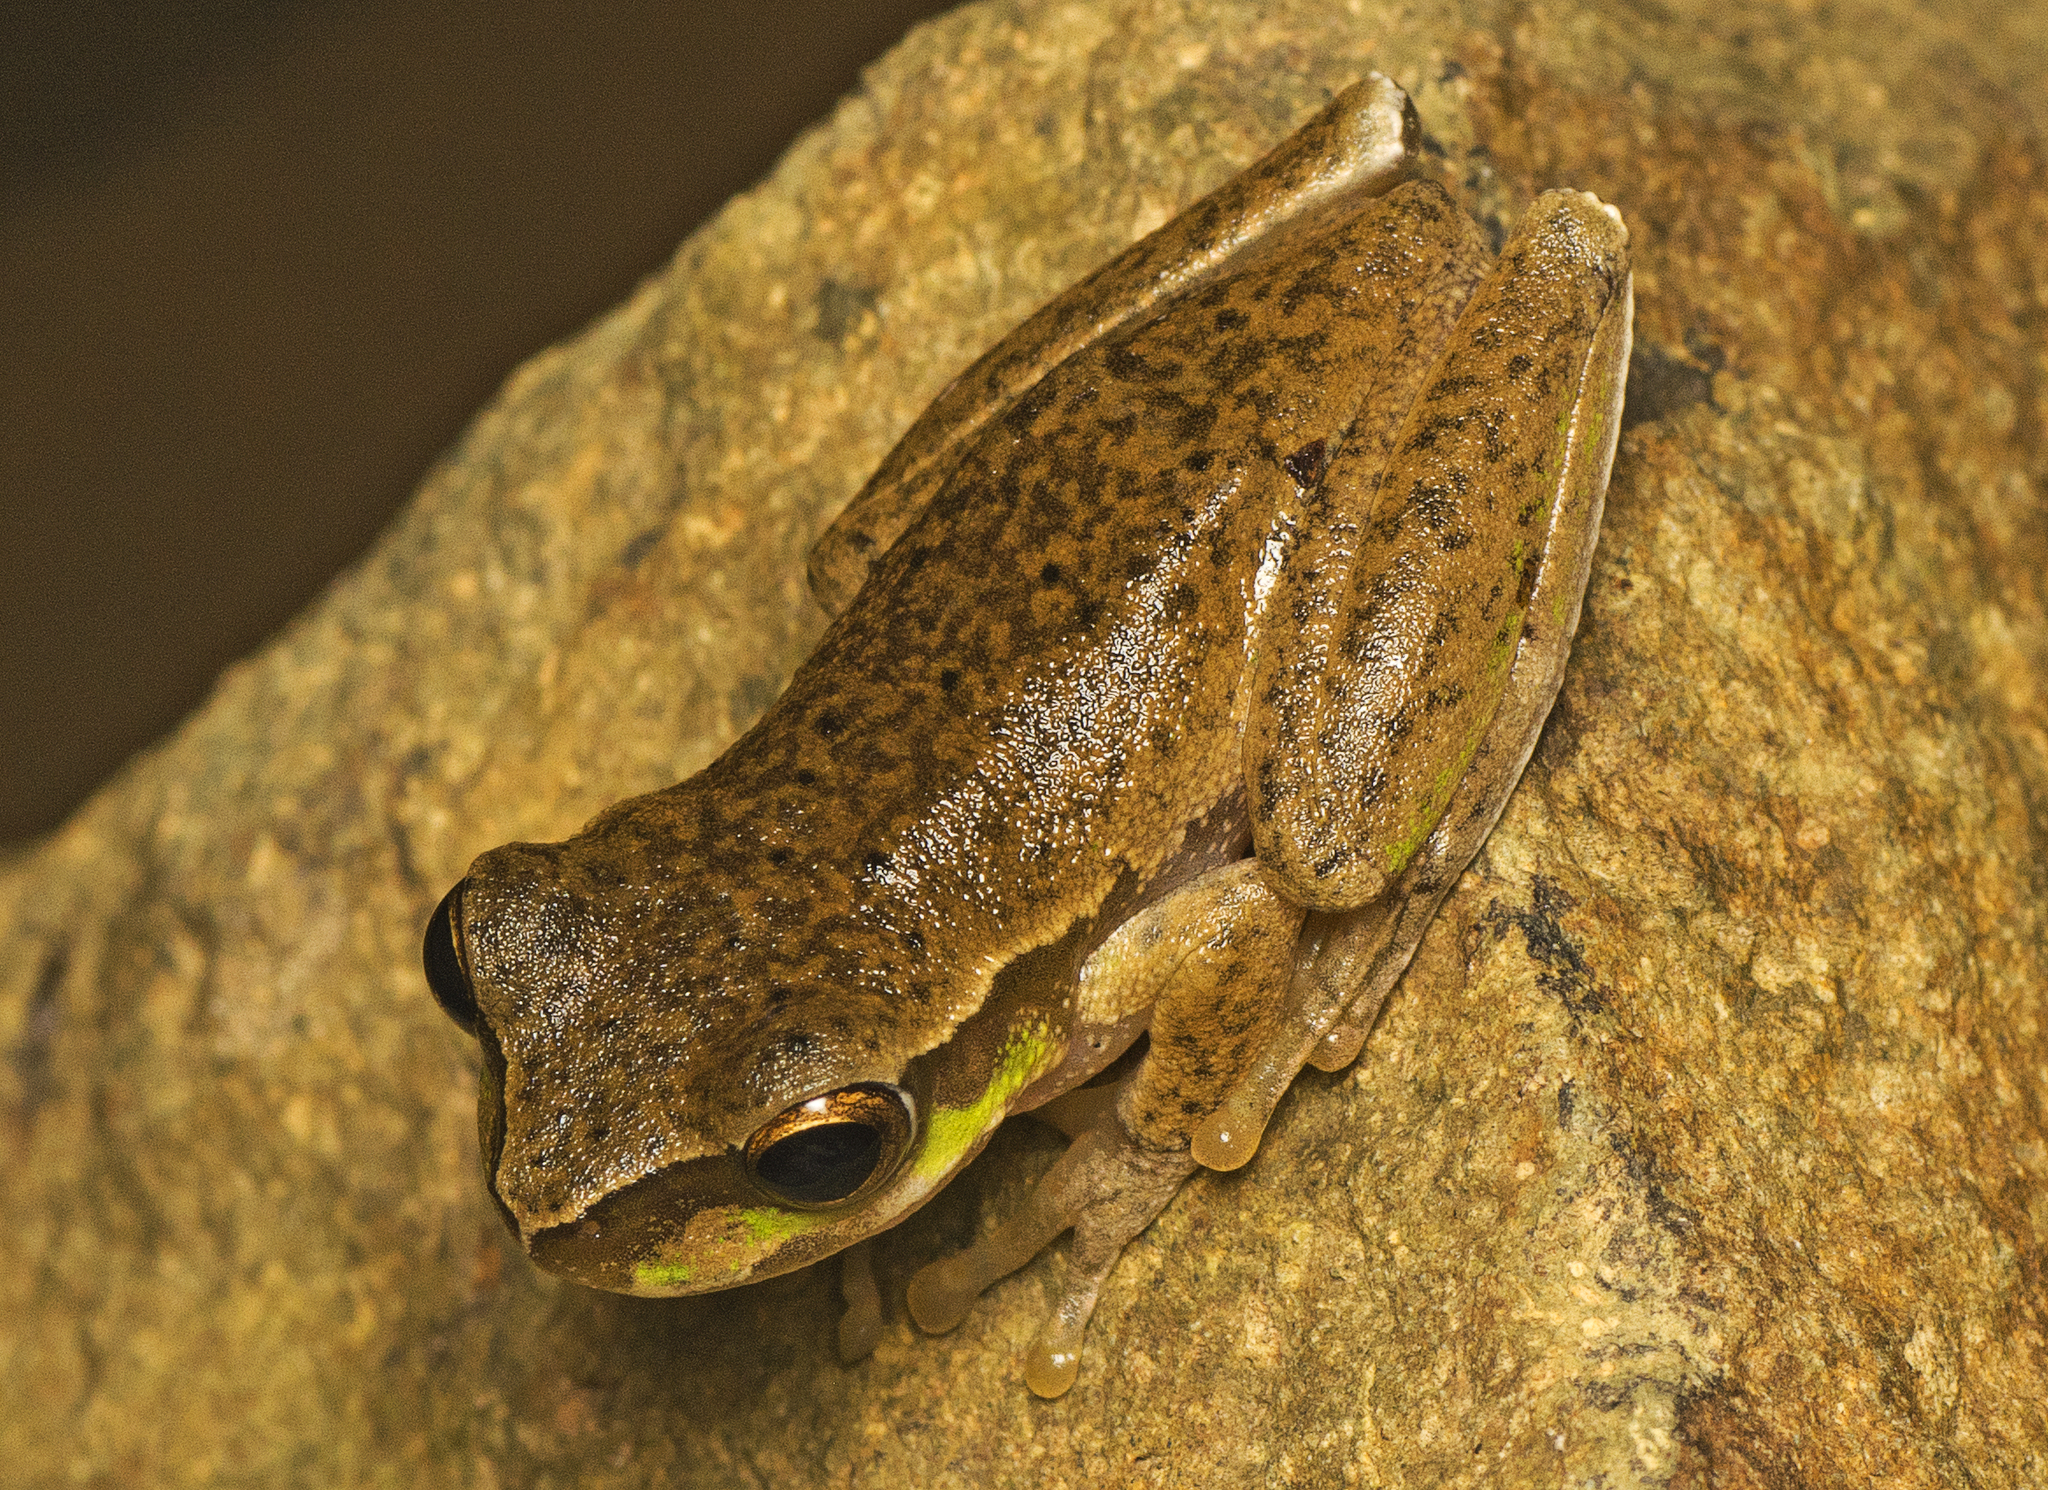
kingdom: Animalia
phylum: Chordata
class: Amphibia
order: Anura
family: Pelodryadidae
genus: Ranoidea
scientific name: Ranoidea pearsoniana
